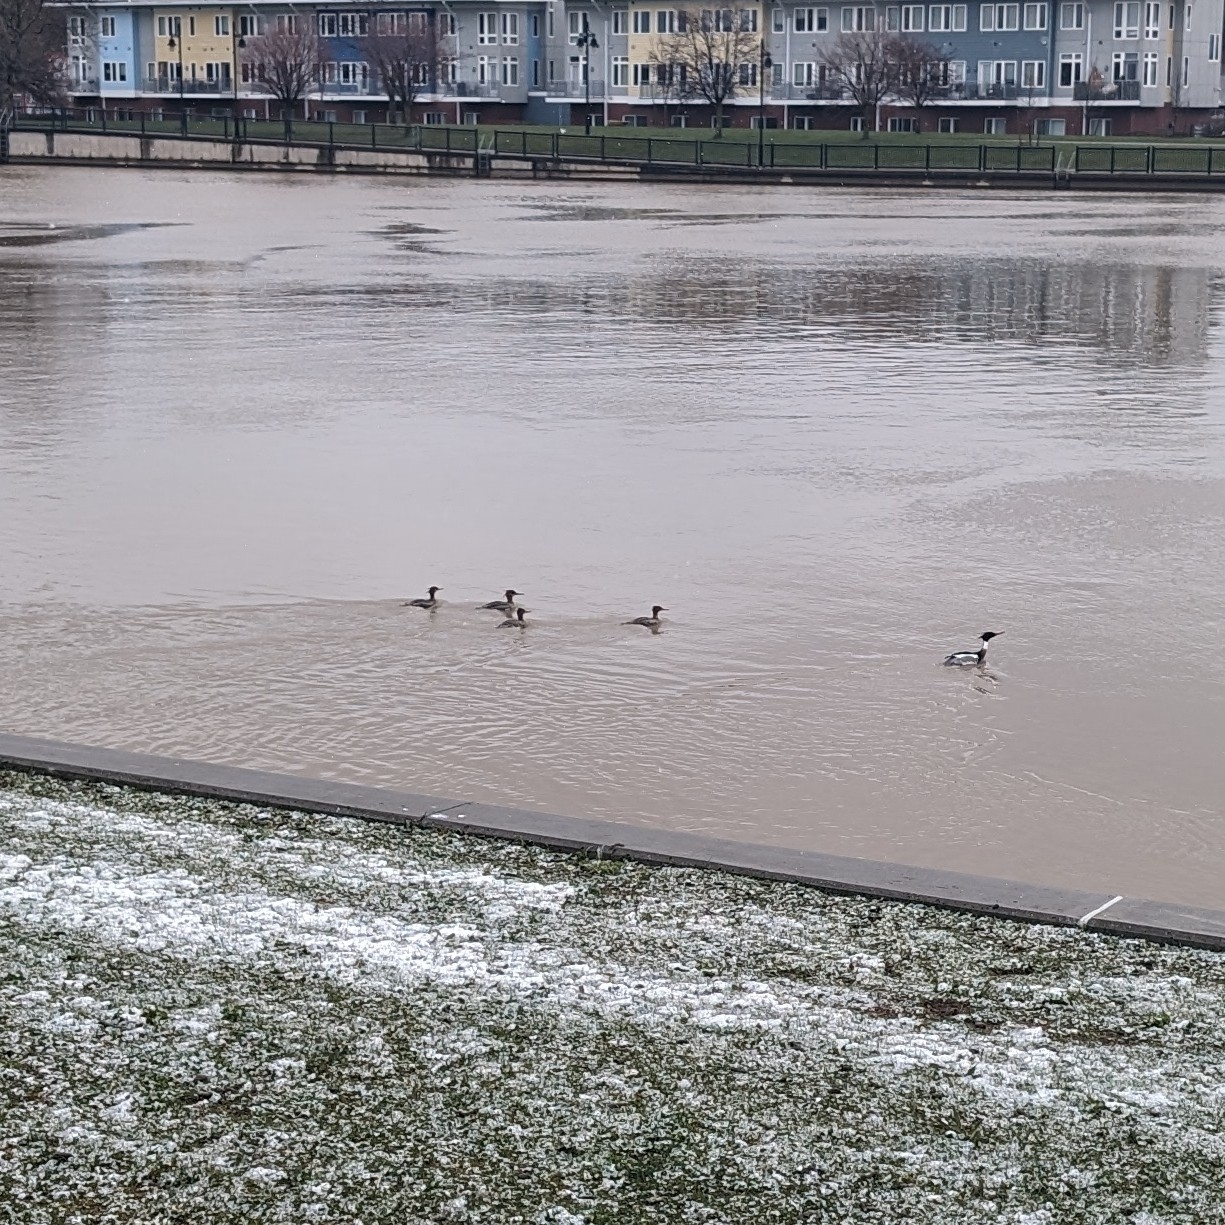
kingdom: Animalia
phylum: Chordata
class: Aves
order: Anseriformes
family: Anatidae
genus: Mergus
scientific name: Mergus serrator
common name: Red-breasted merganser
